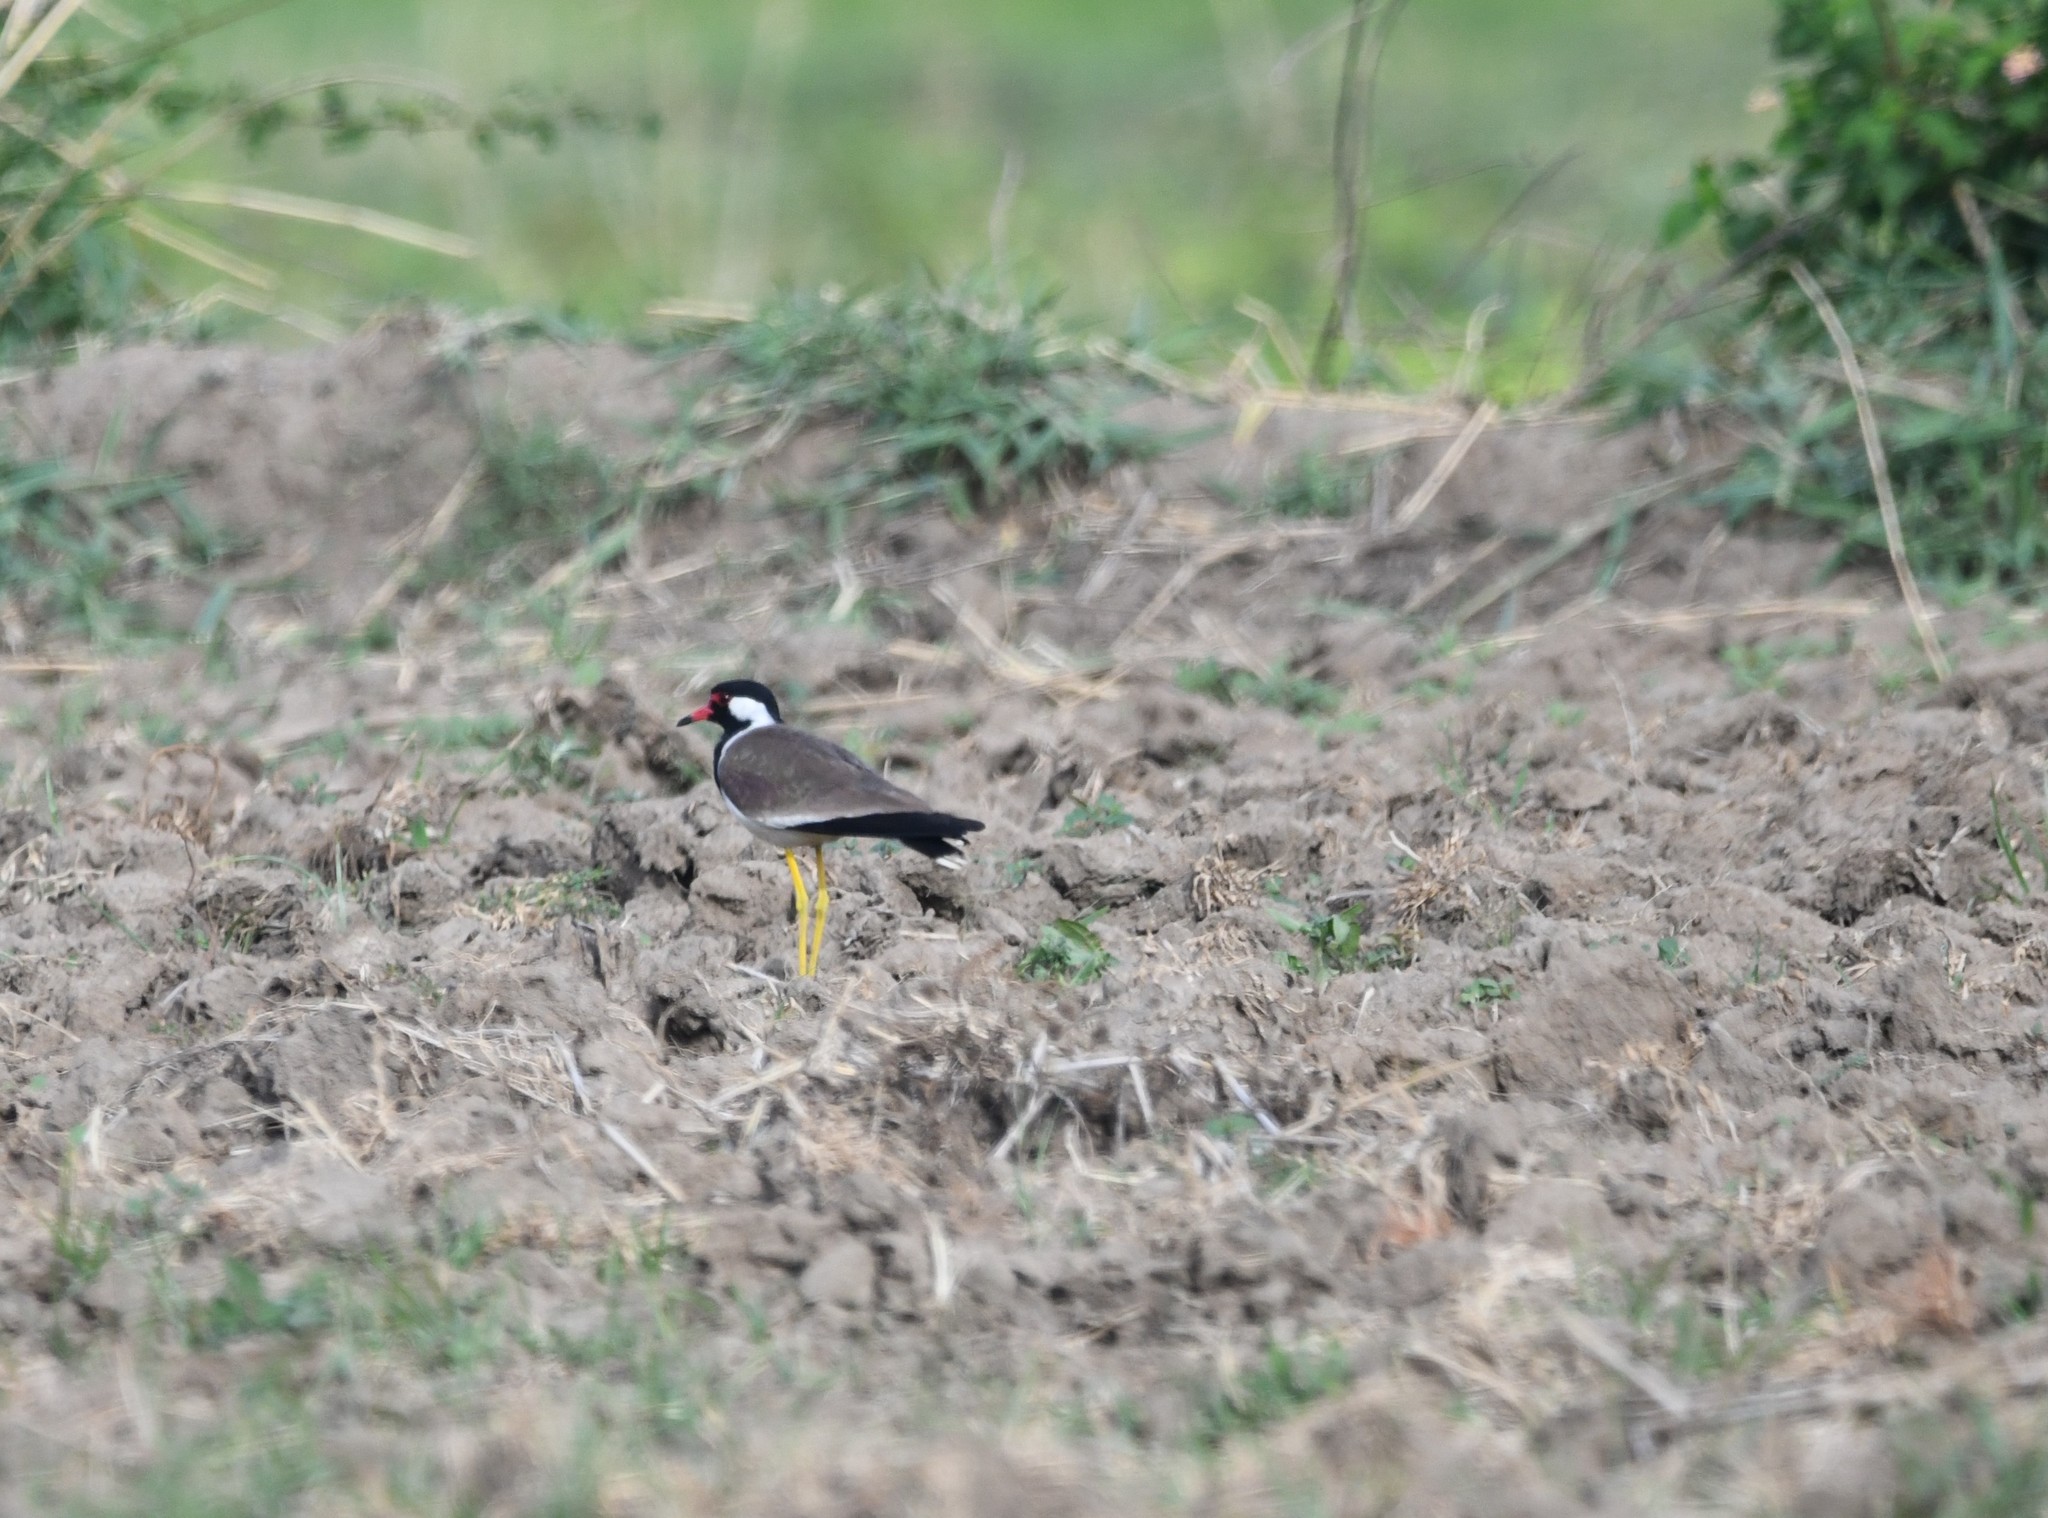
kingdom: Animalia
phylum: Chordata
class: Aves
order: Charadriiformes
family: Charadriidae
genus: Vanellus
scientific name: Vanellus indicus
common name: Red-wattled lapwing
